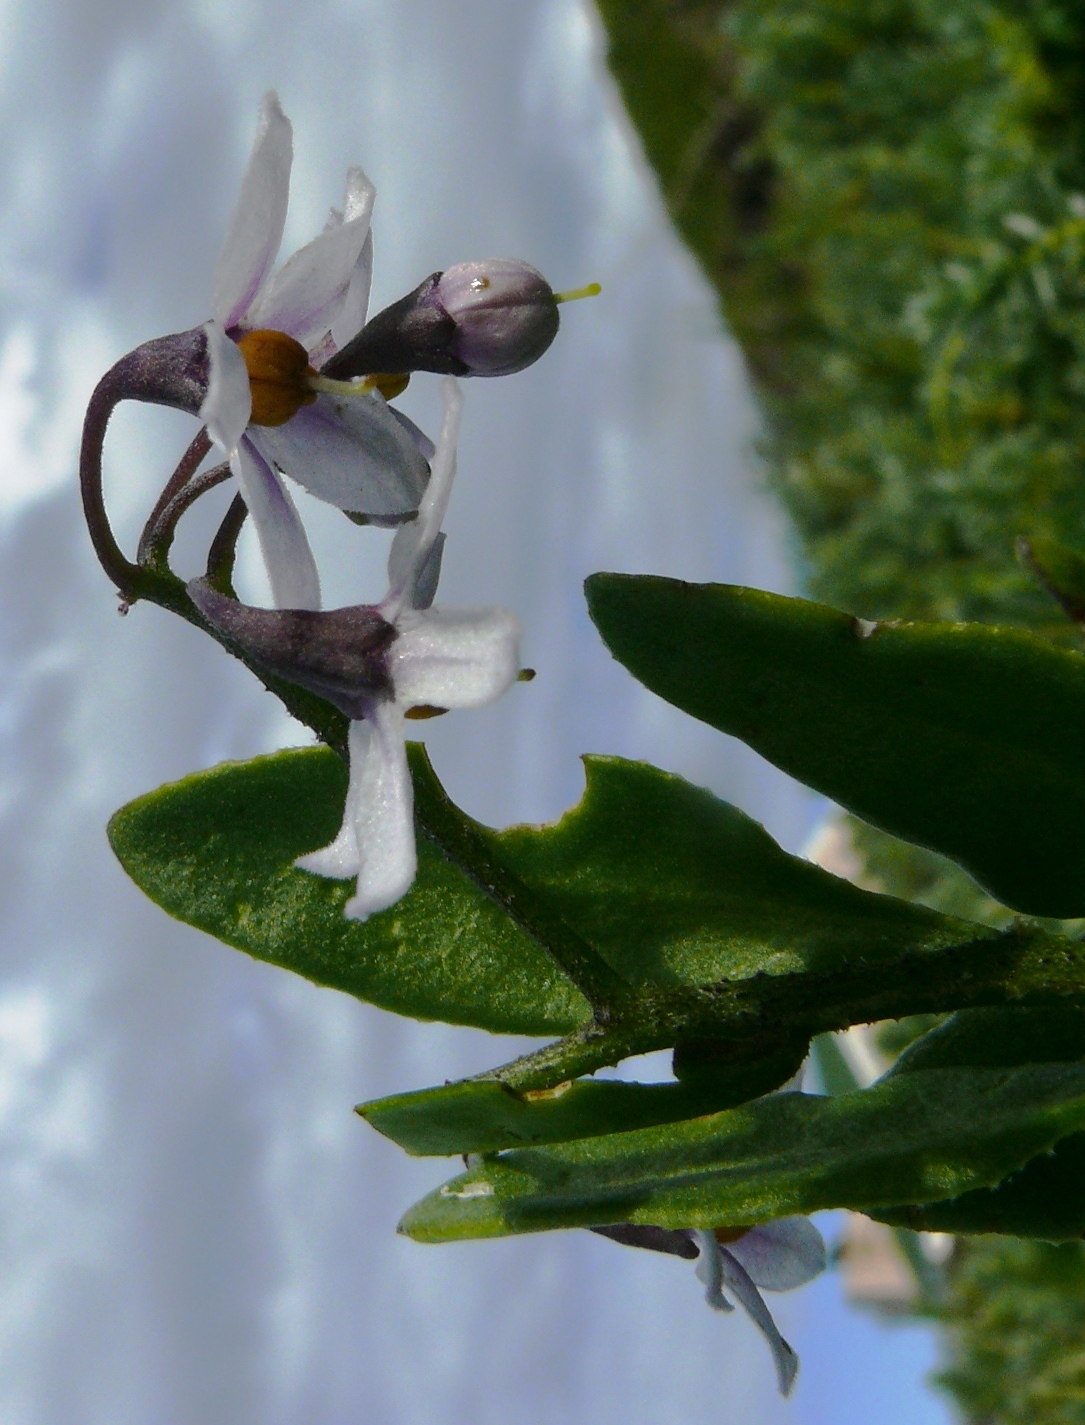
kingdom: Plantae
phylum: Tracheophyta
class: Magnoliopsida
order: Solanales
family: Solanaceae
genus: Solanum
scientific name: Solanum africanum
